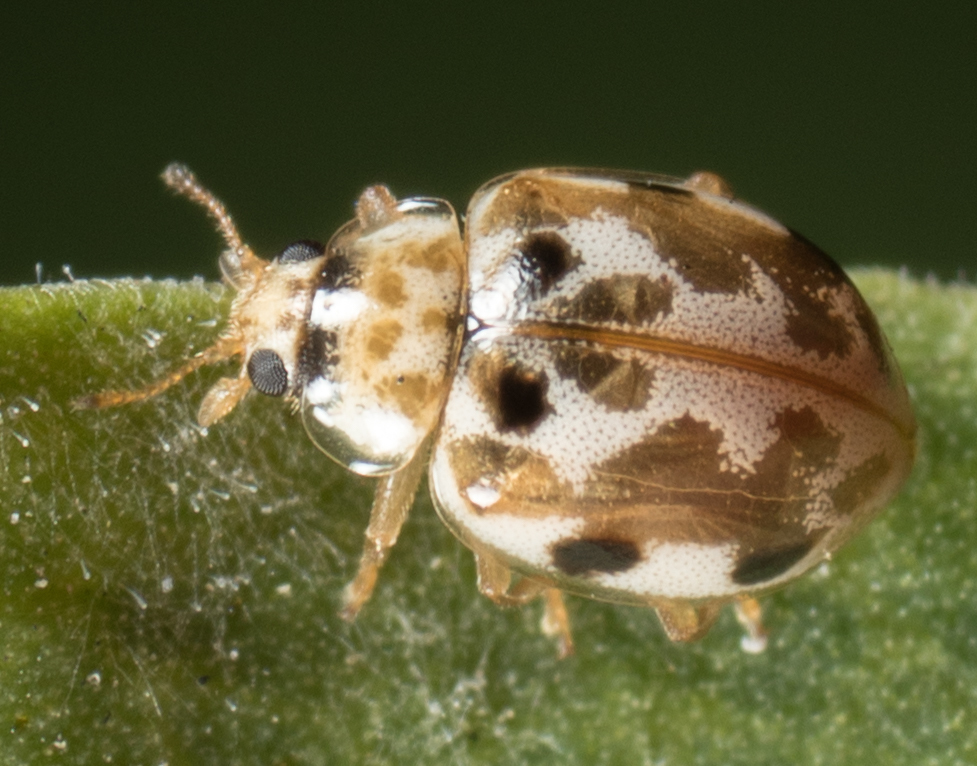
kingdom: Animalia
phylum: Arthropoda
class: Insecta
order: Coleoptera
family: Coccinellidae
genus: Psyllobora
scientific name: Psyllobora vigintimaculata
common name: Ladybird beetle
